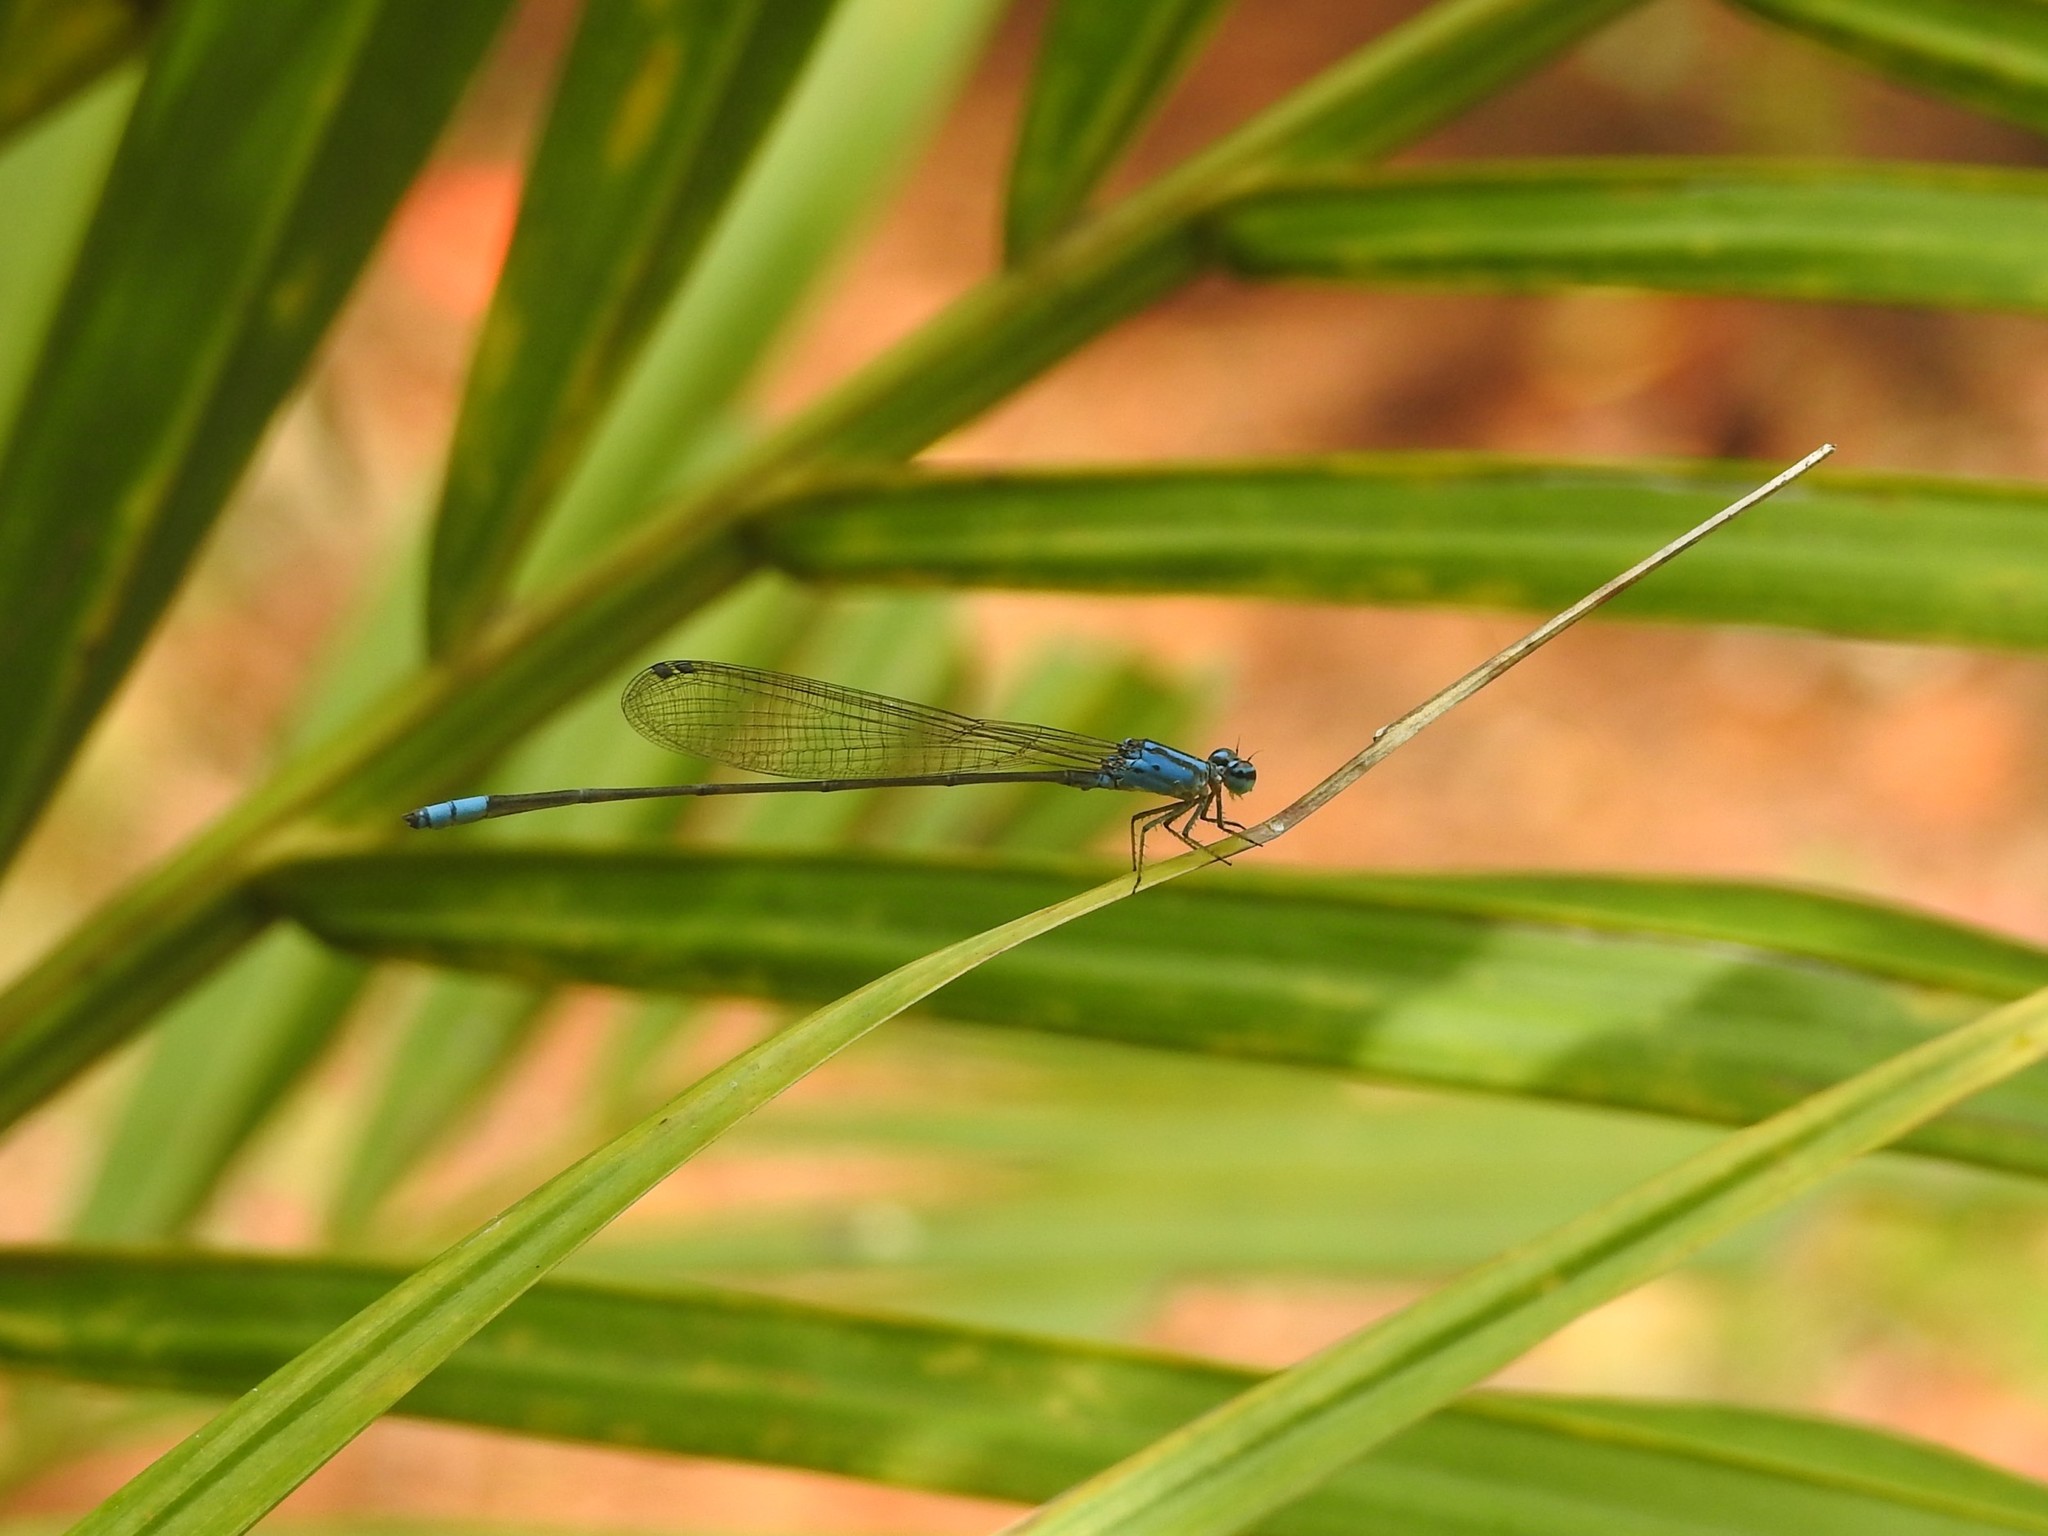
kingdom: Animalia
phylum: Arthropoda
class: Insecta
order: Odonata
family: Coenagrionidae
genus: Archibasis
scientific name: Archibasis oscillans
